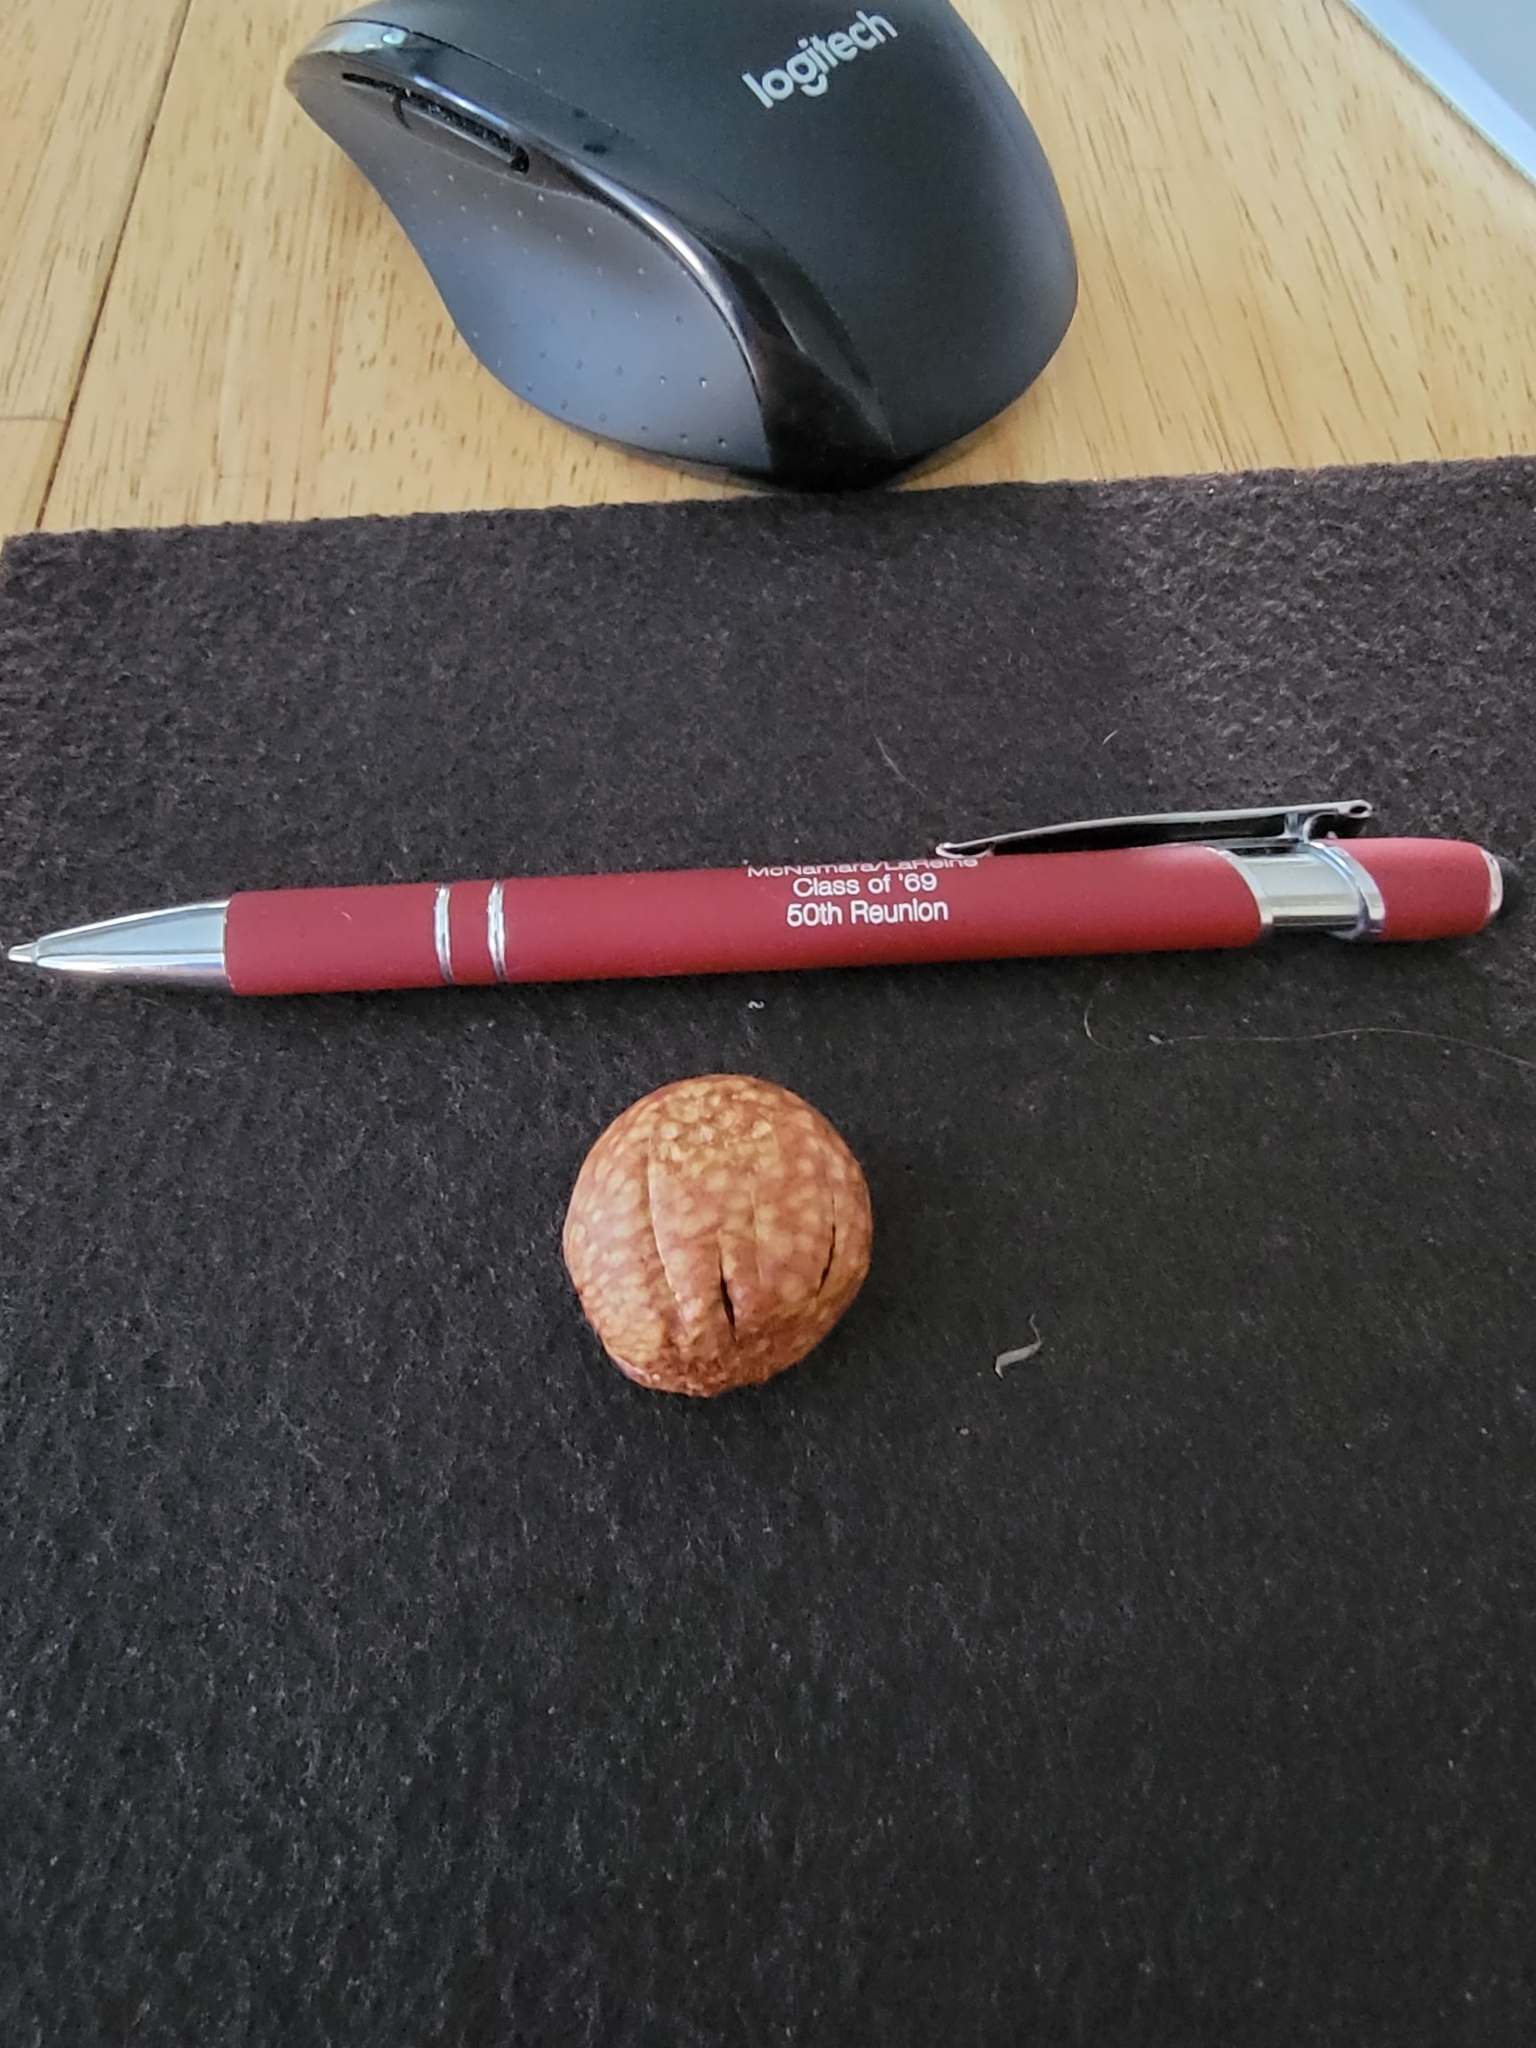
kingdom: Animalia
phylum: Arthropoda
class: Insecta
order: Hymenoptera
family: Cynipidae
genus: Amphibolips
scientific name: Amphibolips
